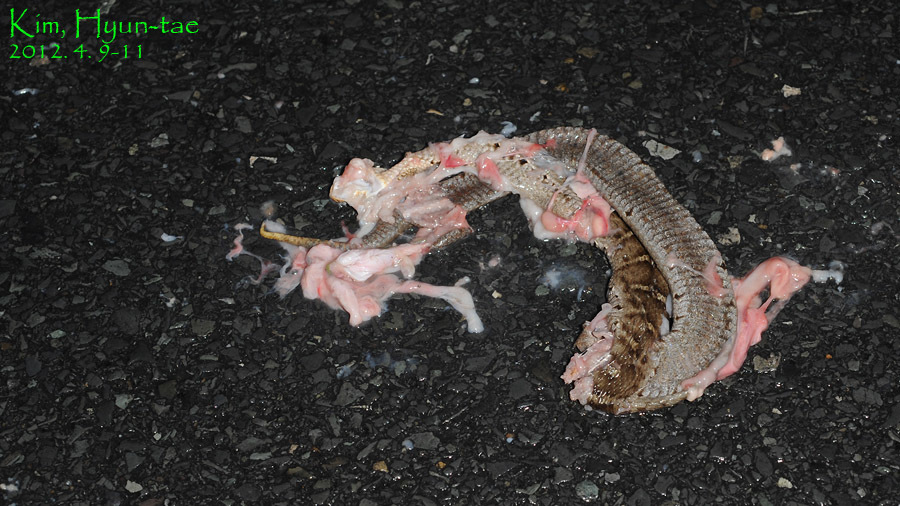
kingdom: Animalia
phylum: Chordata
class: Squamata
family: Viperidae
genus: Gloydius
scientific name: Gloydius ussuriensis
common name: Ussuri mamushi
